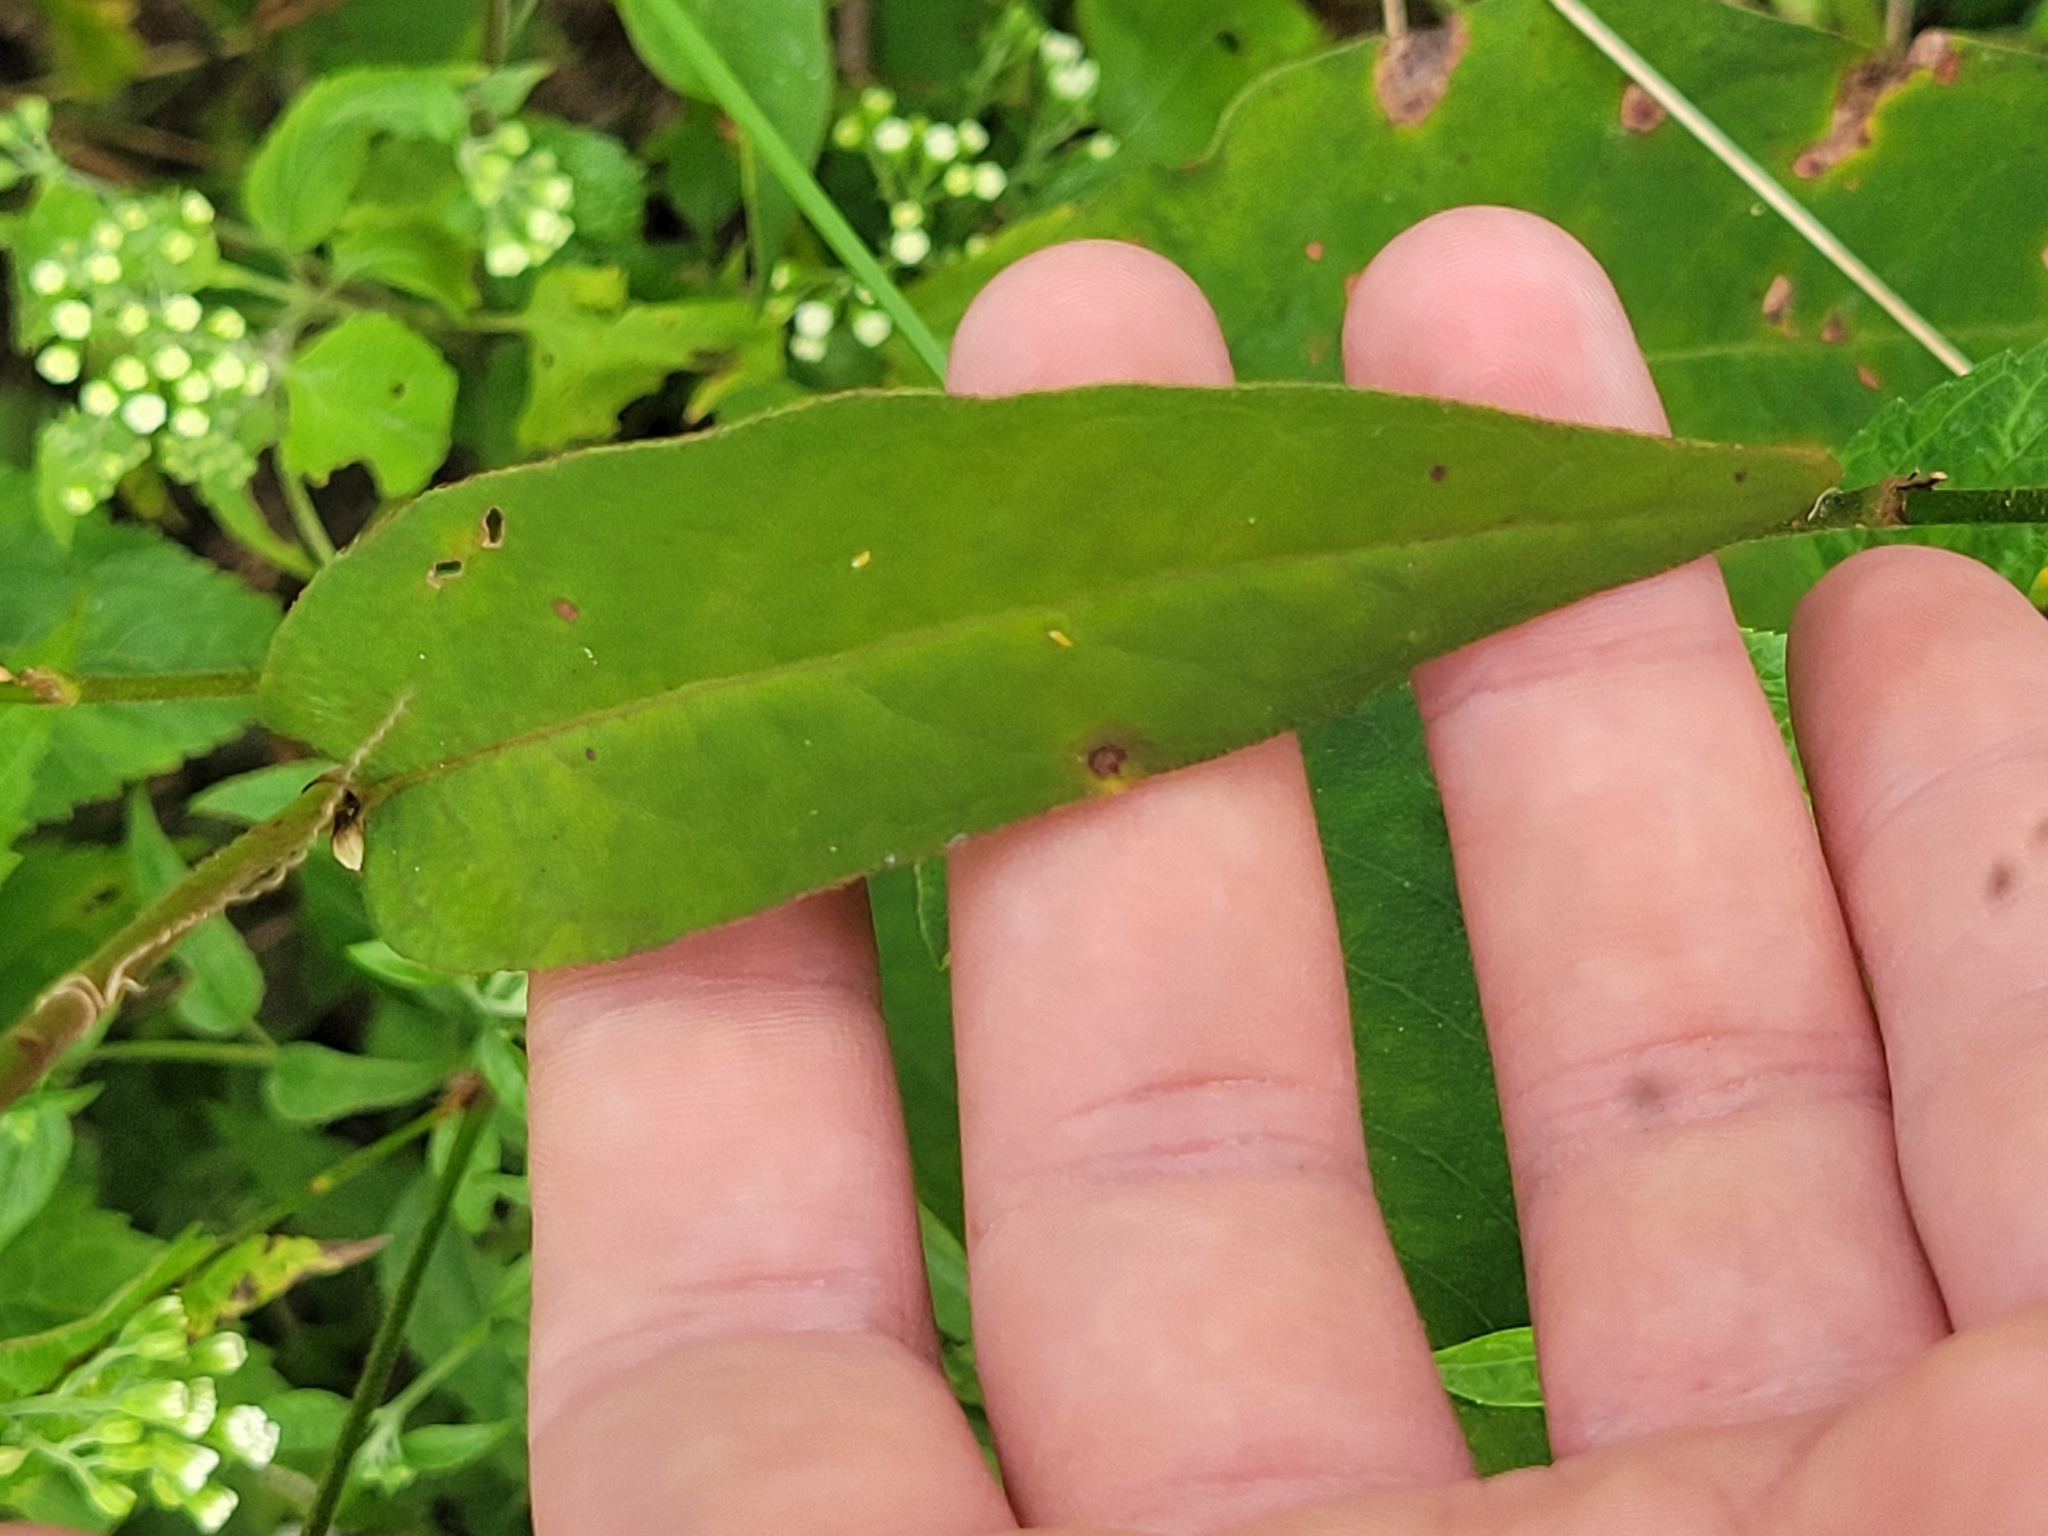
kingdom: Plantae
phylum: Tracheophyta
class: Magnoliopsida
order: Caryophyllales
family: Polygonaceae
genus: Persicaria
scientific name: Persicaria virginiana
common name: Jumpseed
